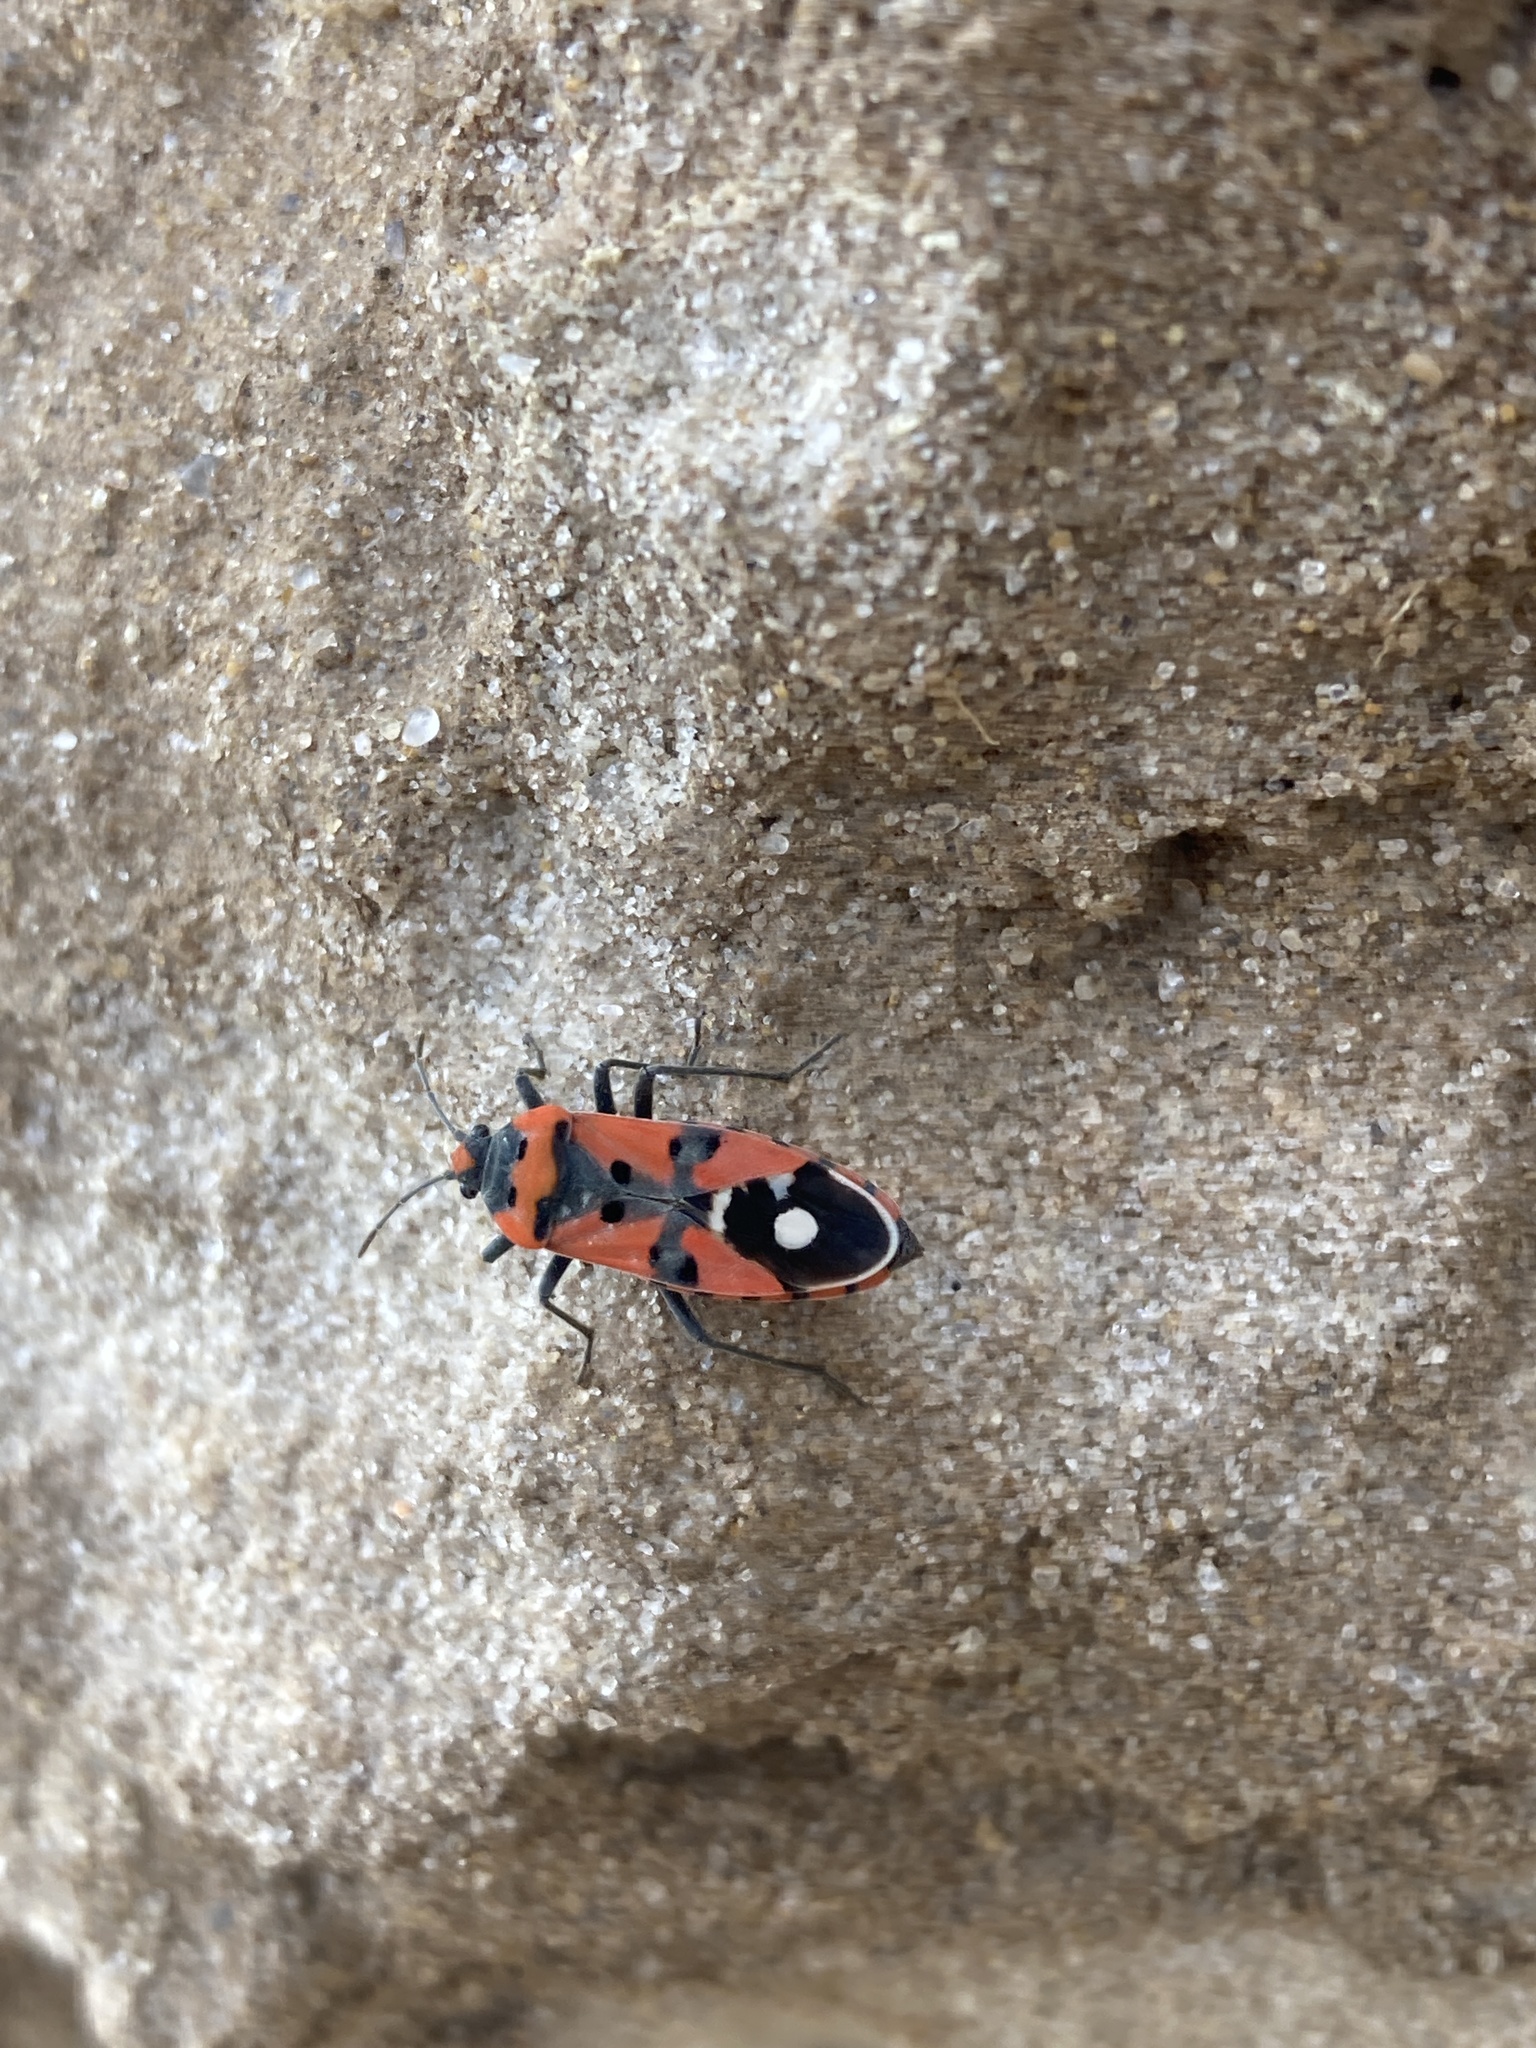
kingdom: Animalia
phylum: Arthropoda
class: Insecta
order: Hemiptera
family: Lygaeidae
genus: Lygaeus
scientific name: Lygaeus equestris
